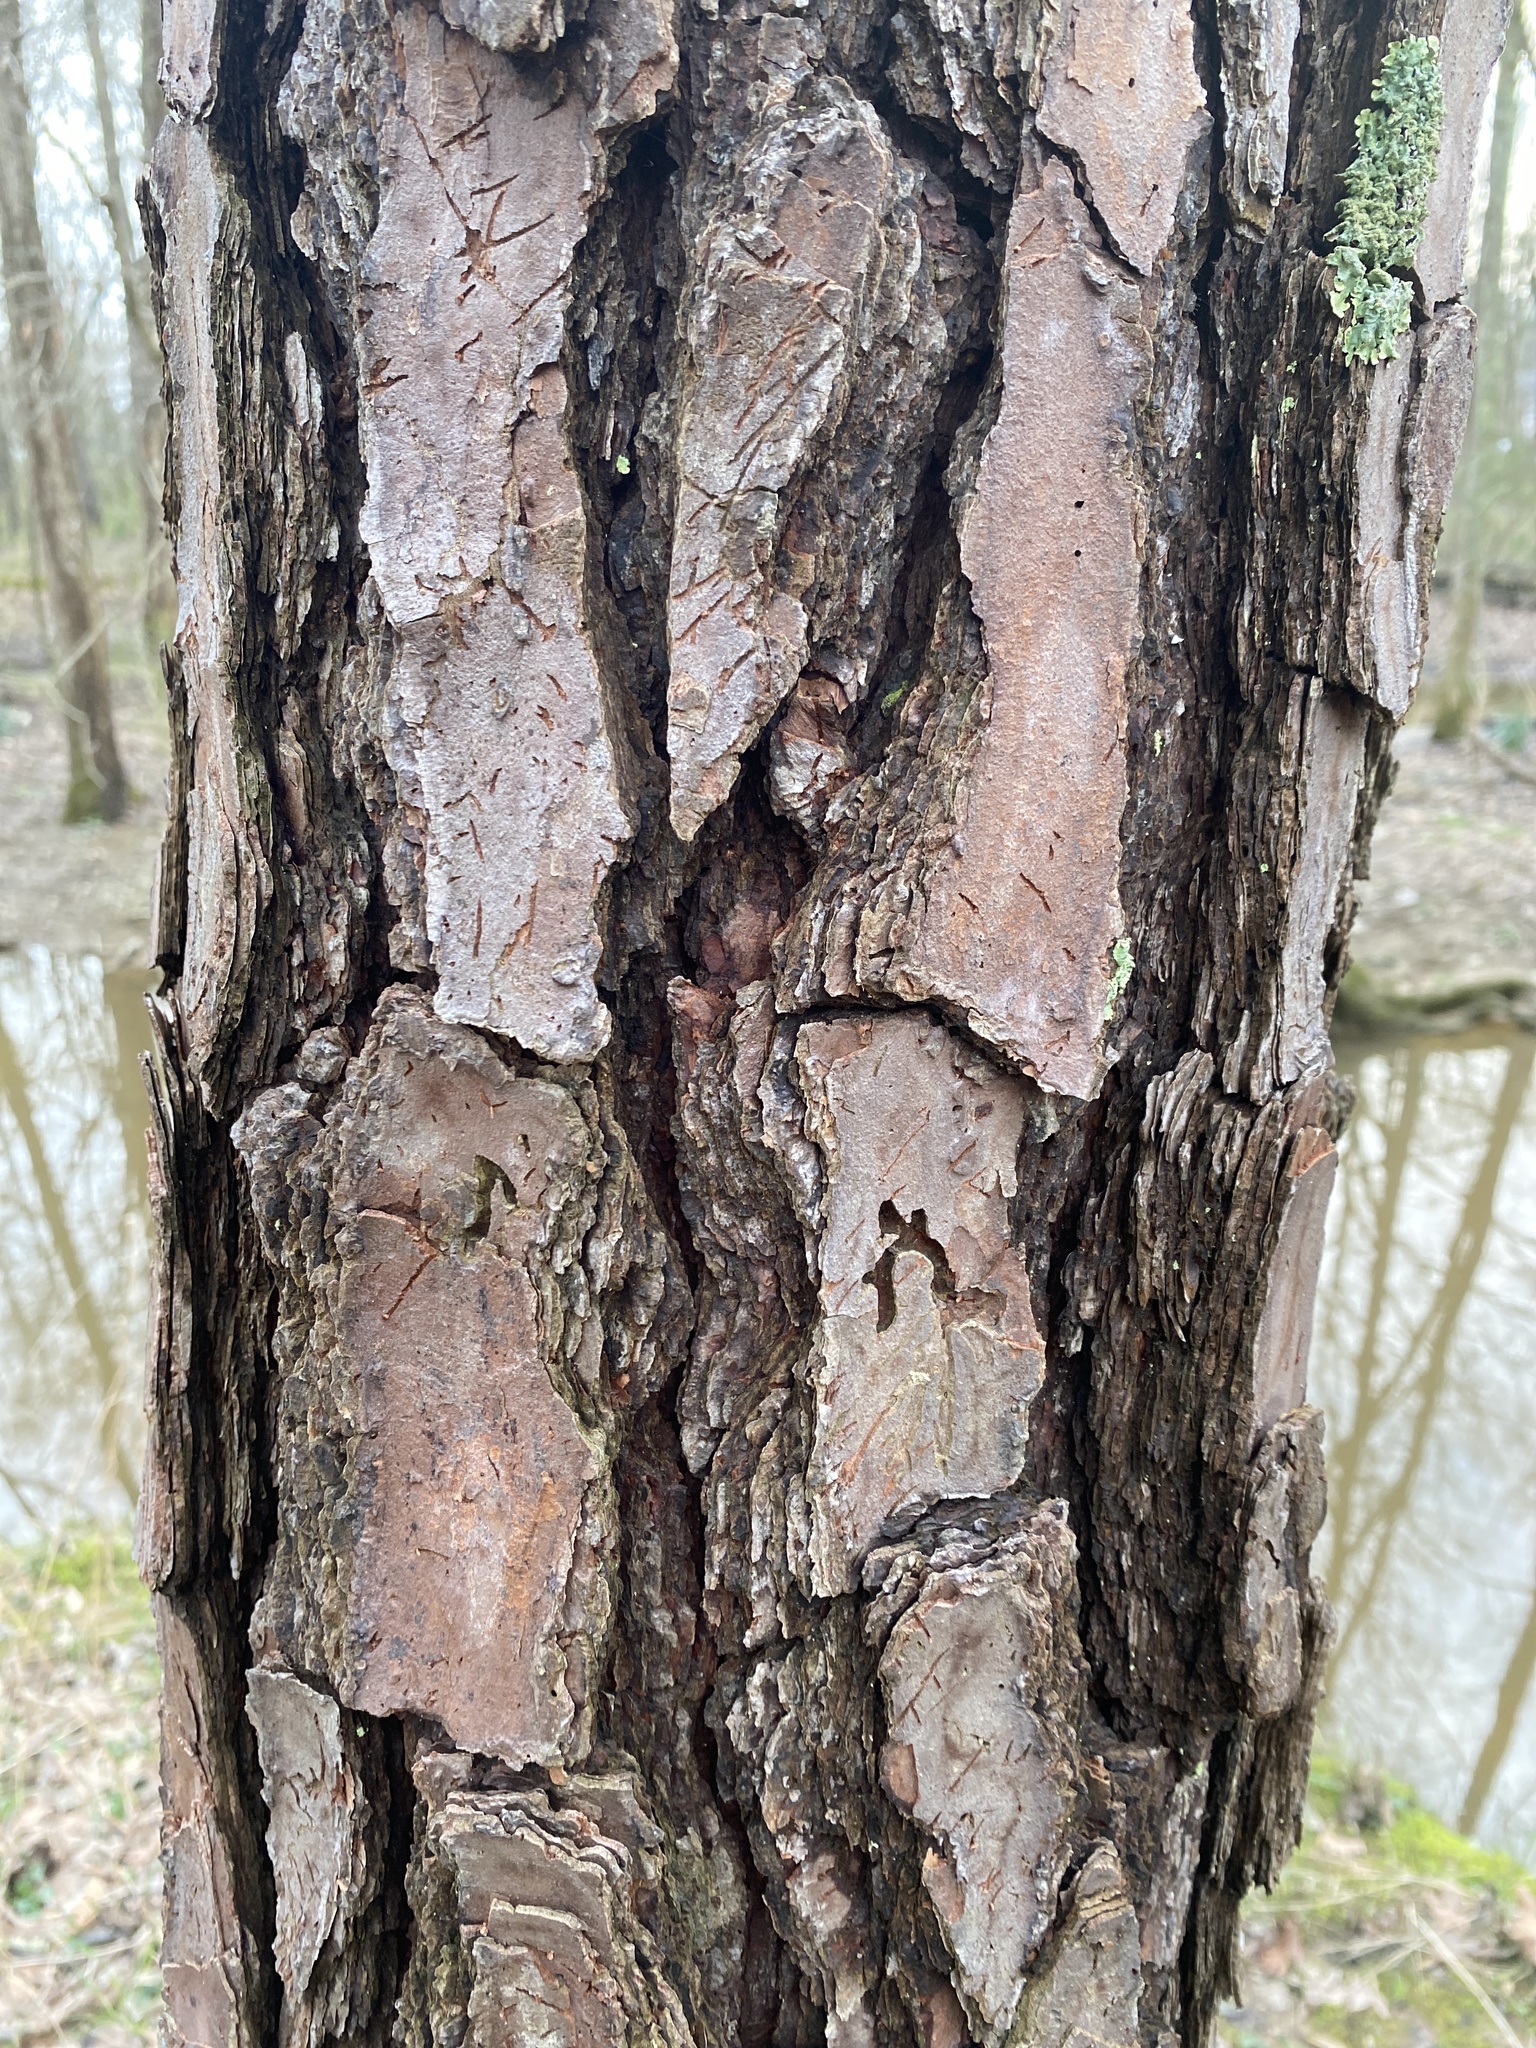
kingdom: Plantae
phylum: Tracheophyta
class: Pinopsida
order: Pinales
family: Pinaceae
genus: Pinus
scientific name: Pinus taeda
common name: Loblolly pine
